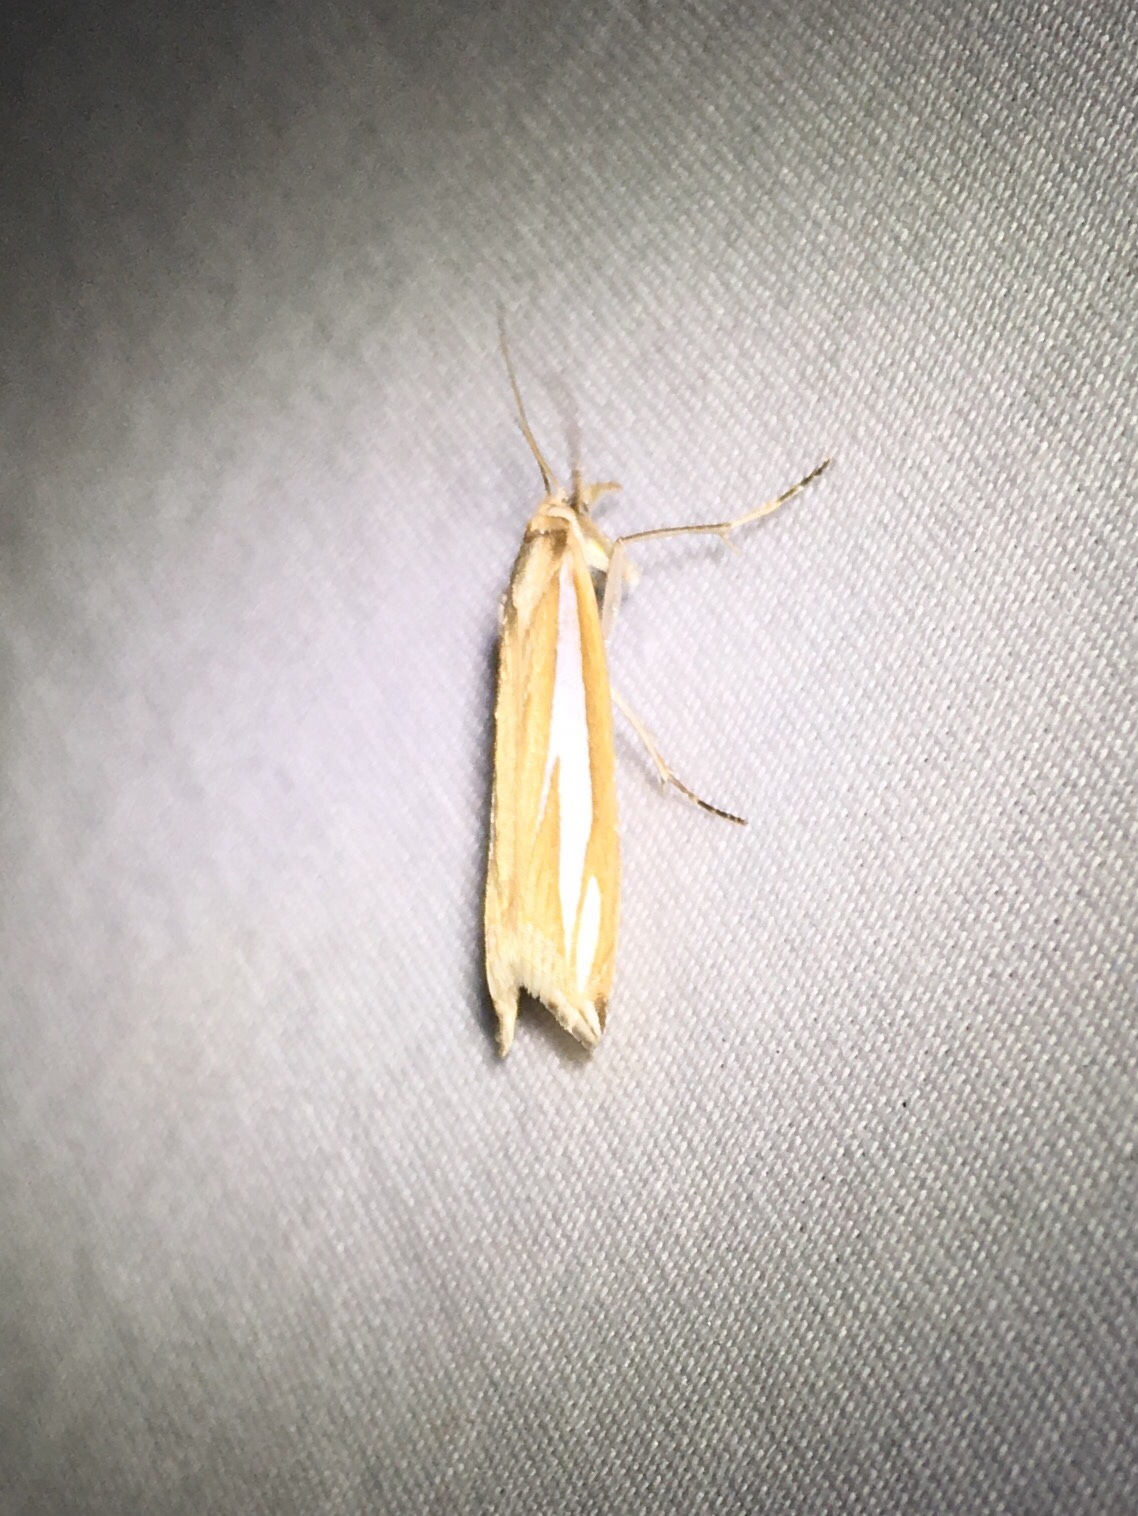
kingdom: Animalia
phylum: Arthropoda
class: Insecta
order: Lepidoptera
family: Crambidae
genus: Crambus
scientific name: Crambus satrapellus
